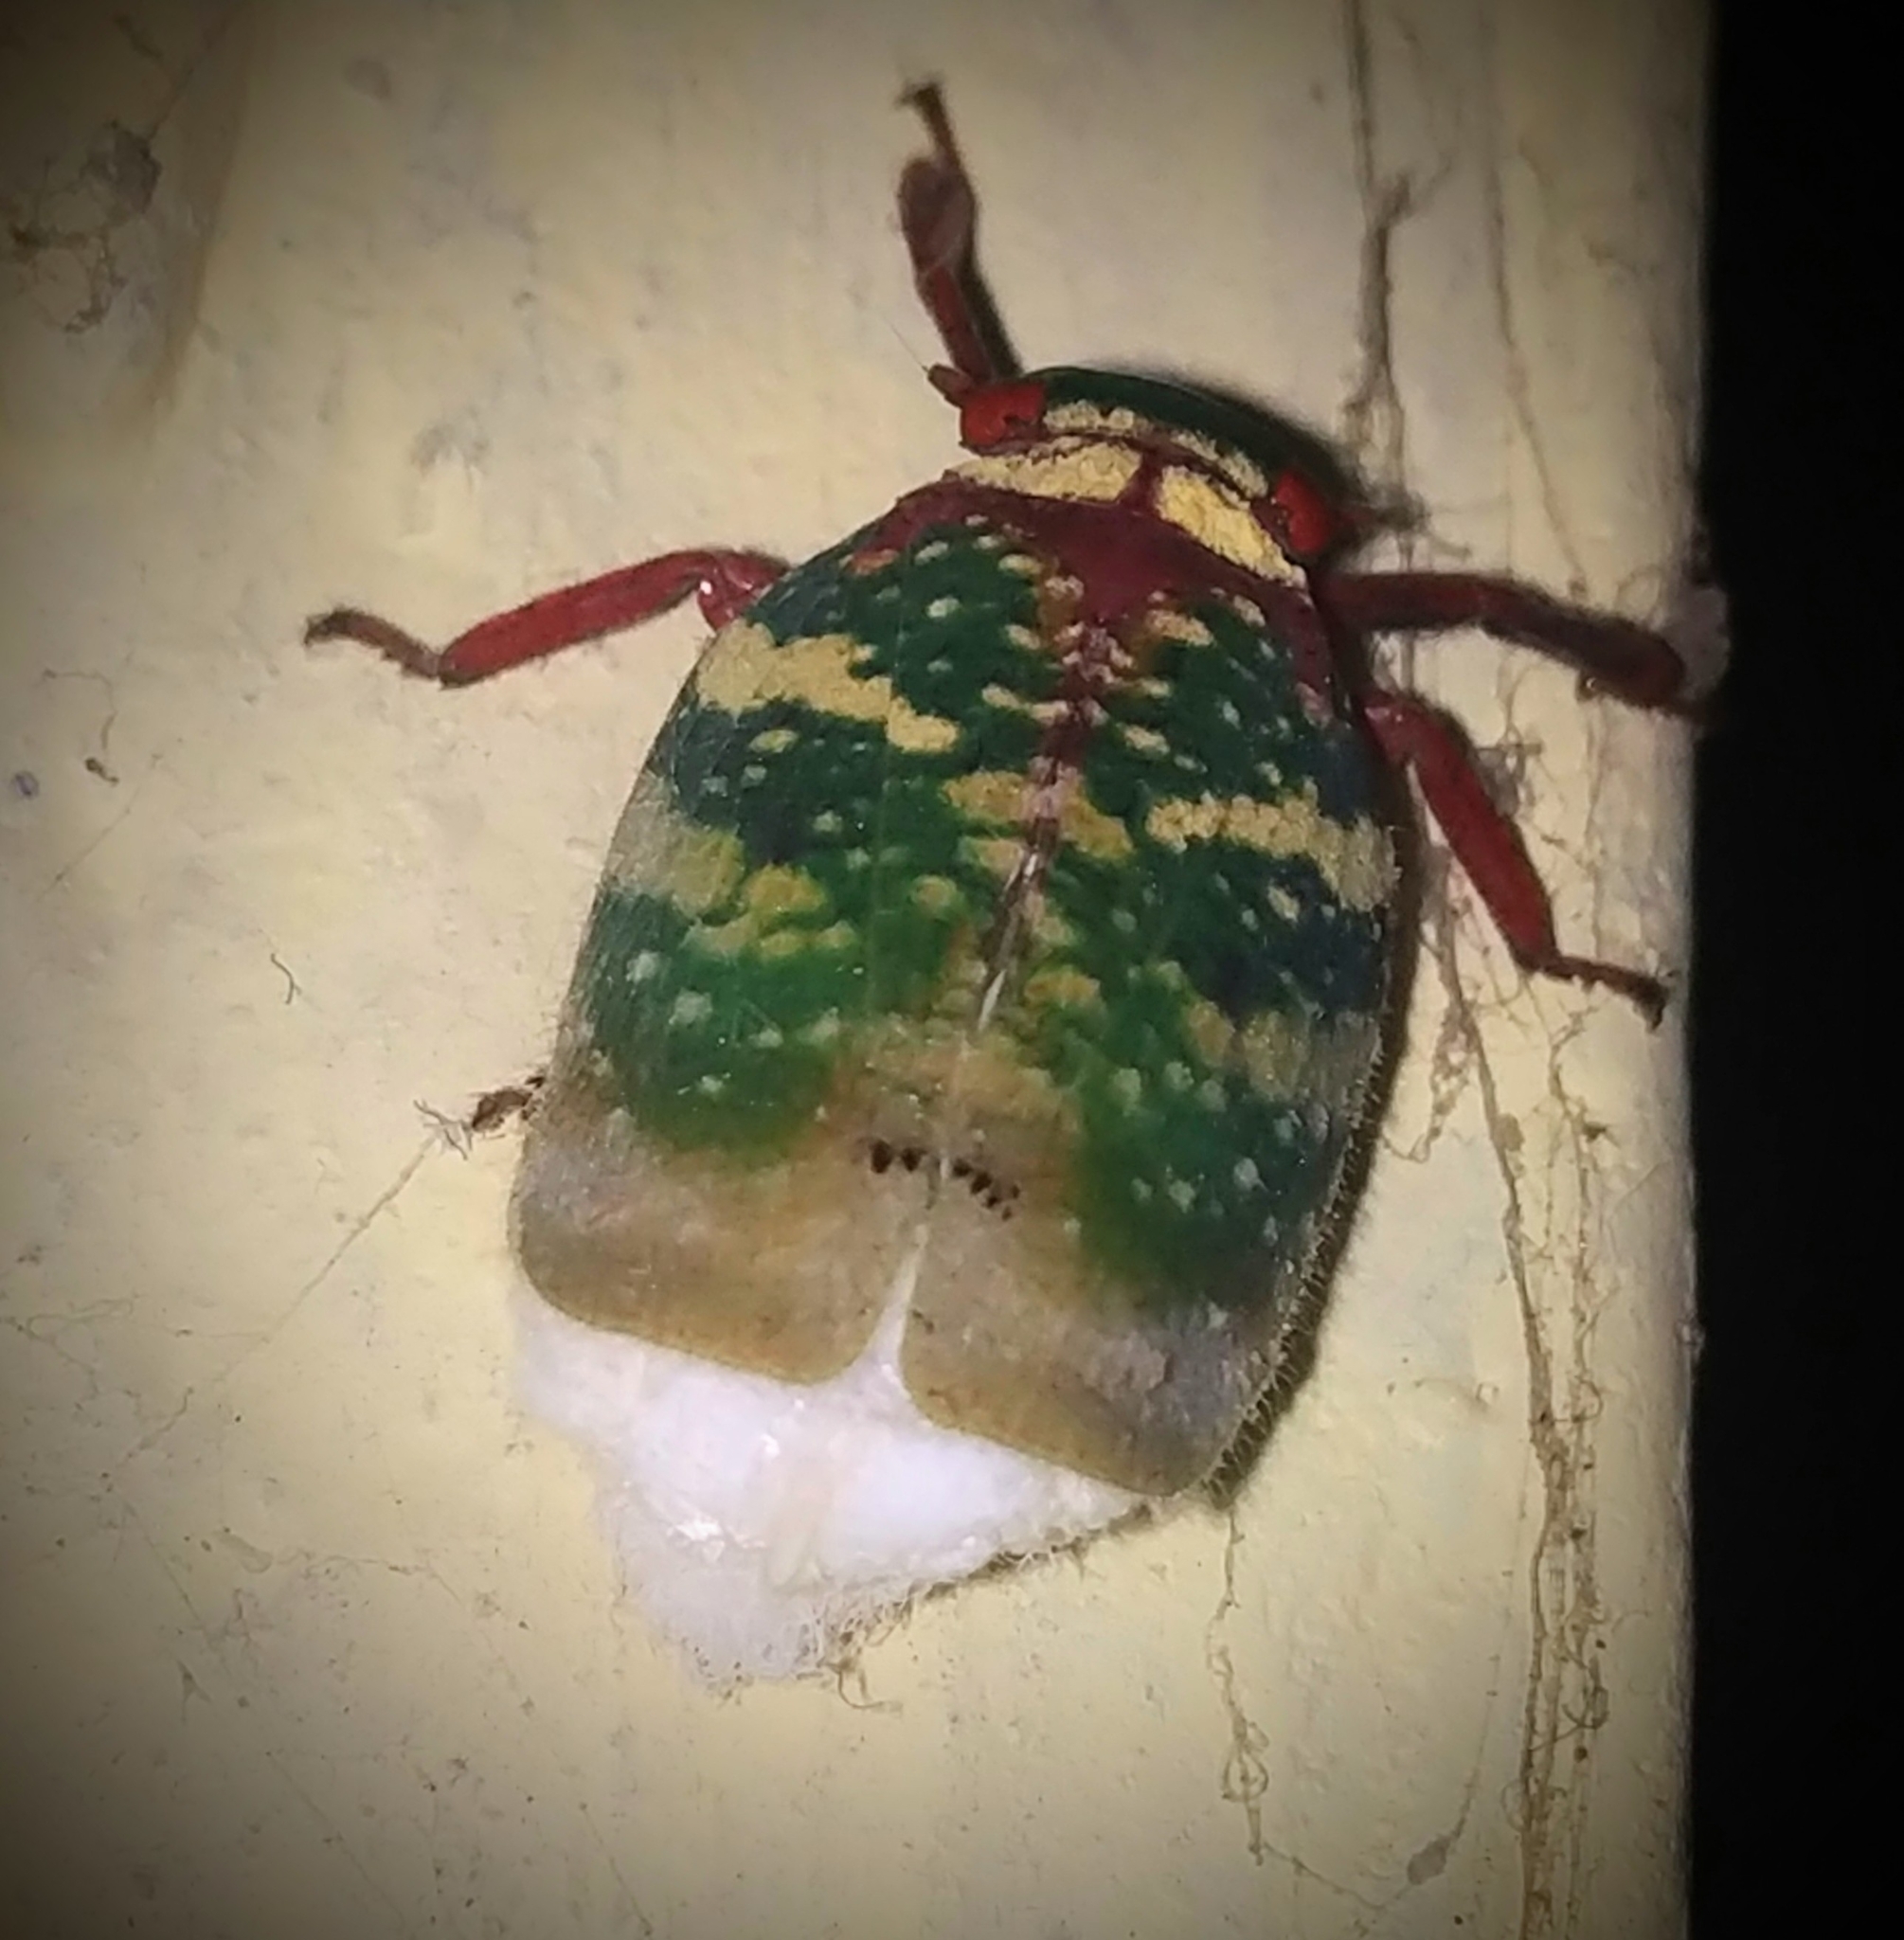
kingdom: Animalia
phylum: Arthropoda
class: Insecta
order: Hemiptera
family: Eurybrachidae
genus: Eurybrachys
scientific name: Eurybrachys tomentosa
